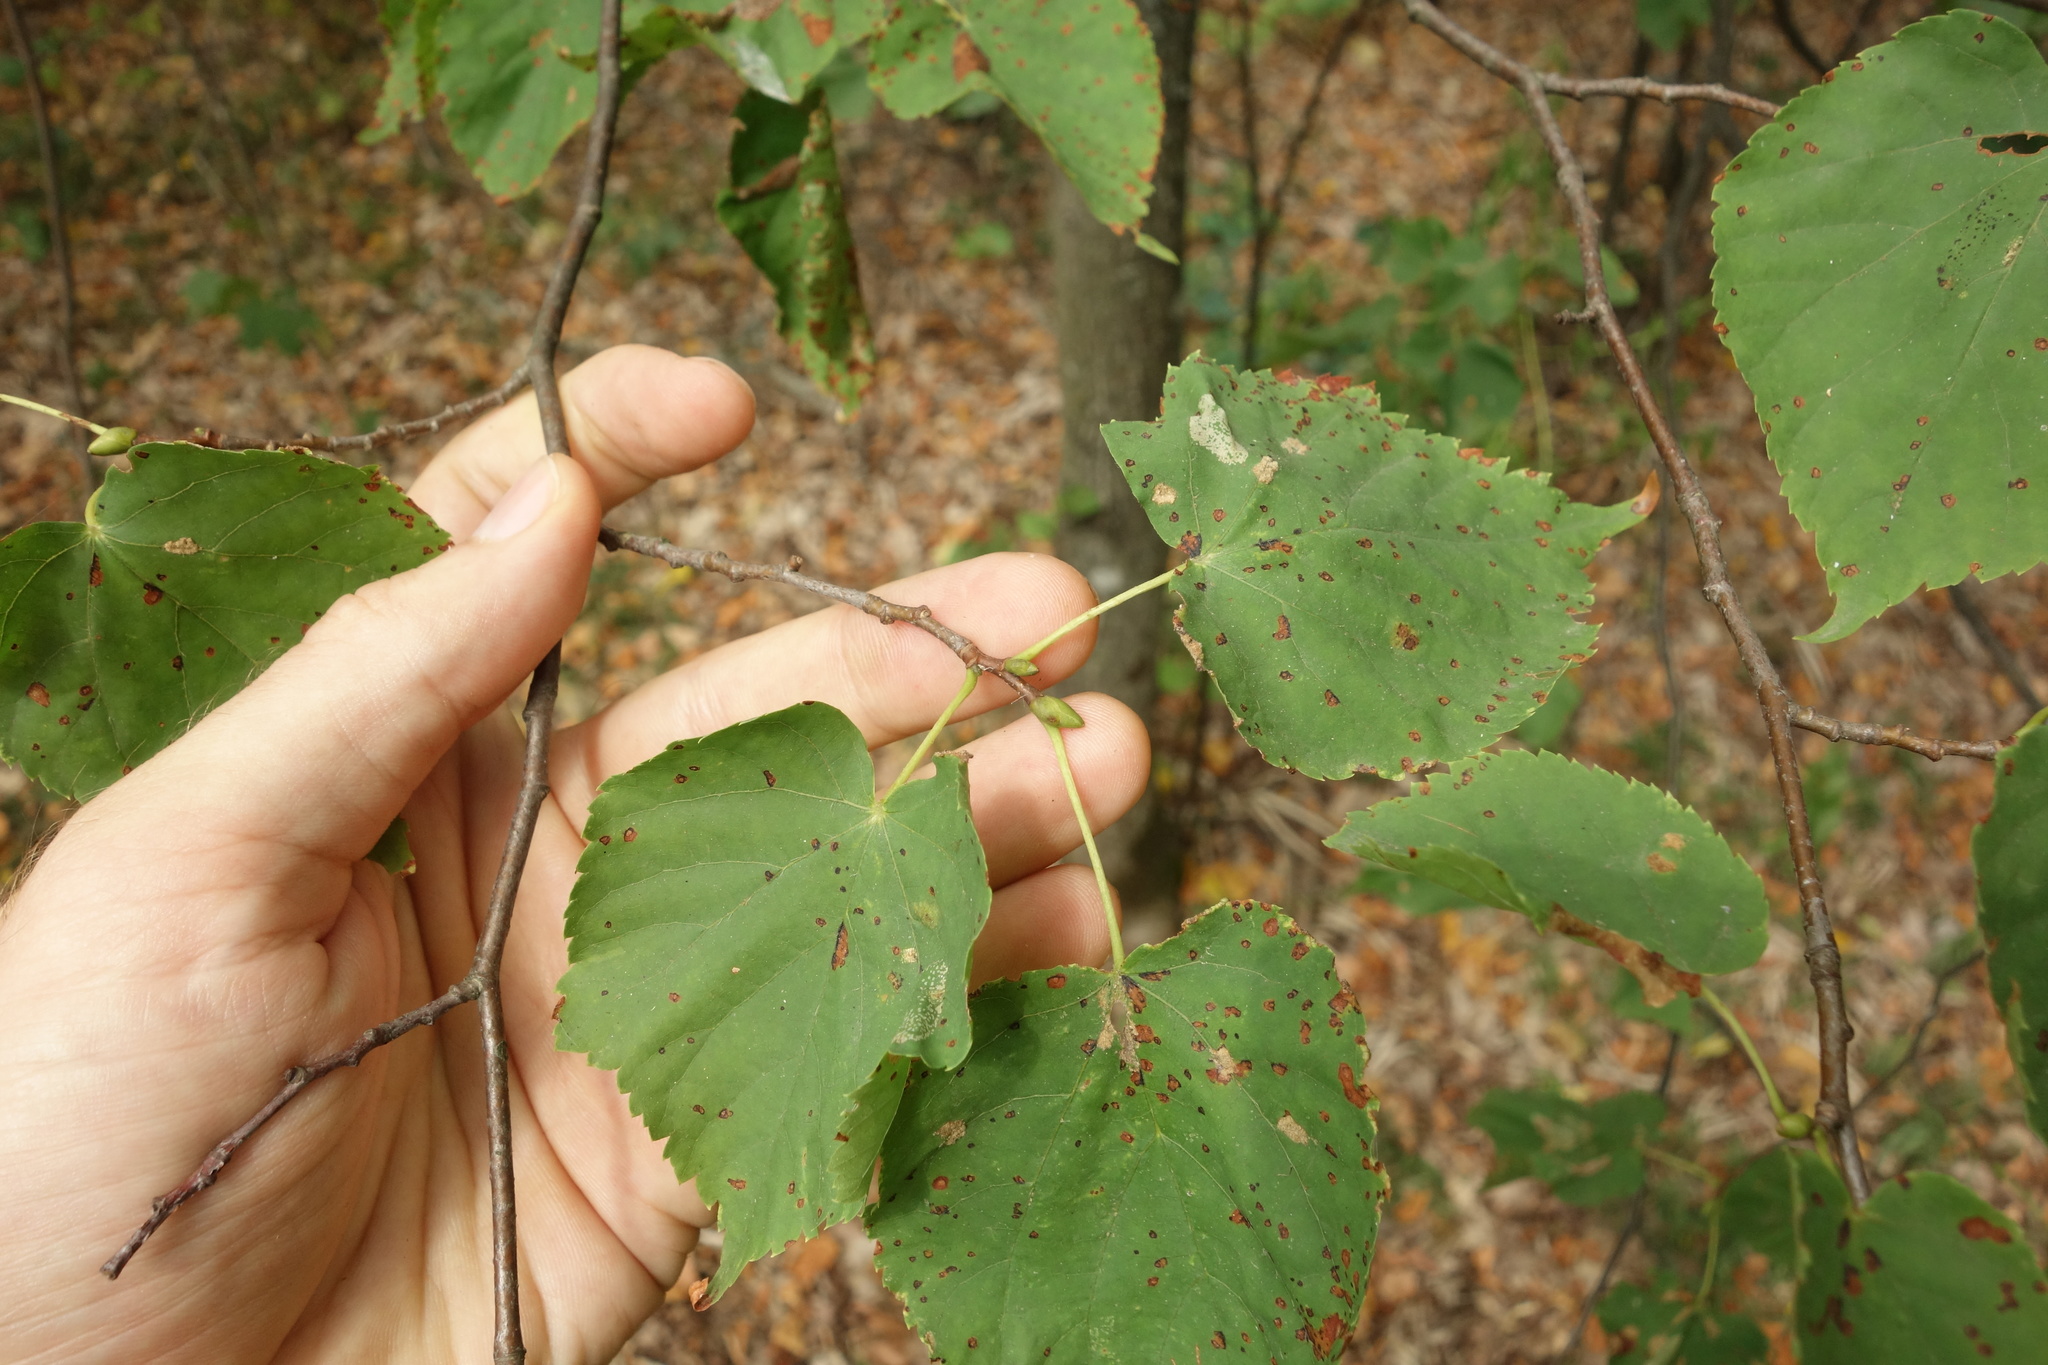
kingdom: Plantae
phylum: Tracheophyta
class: Magnoliopsida
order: Malvales
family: Malvaceae
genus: Tilia
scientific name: Tilia cordata
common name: Small-leaved lime
